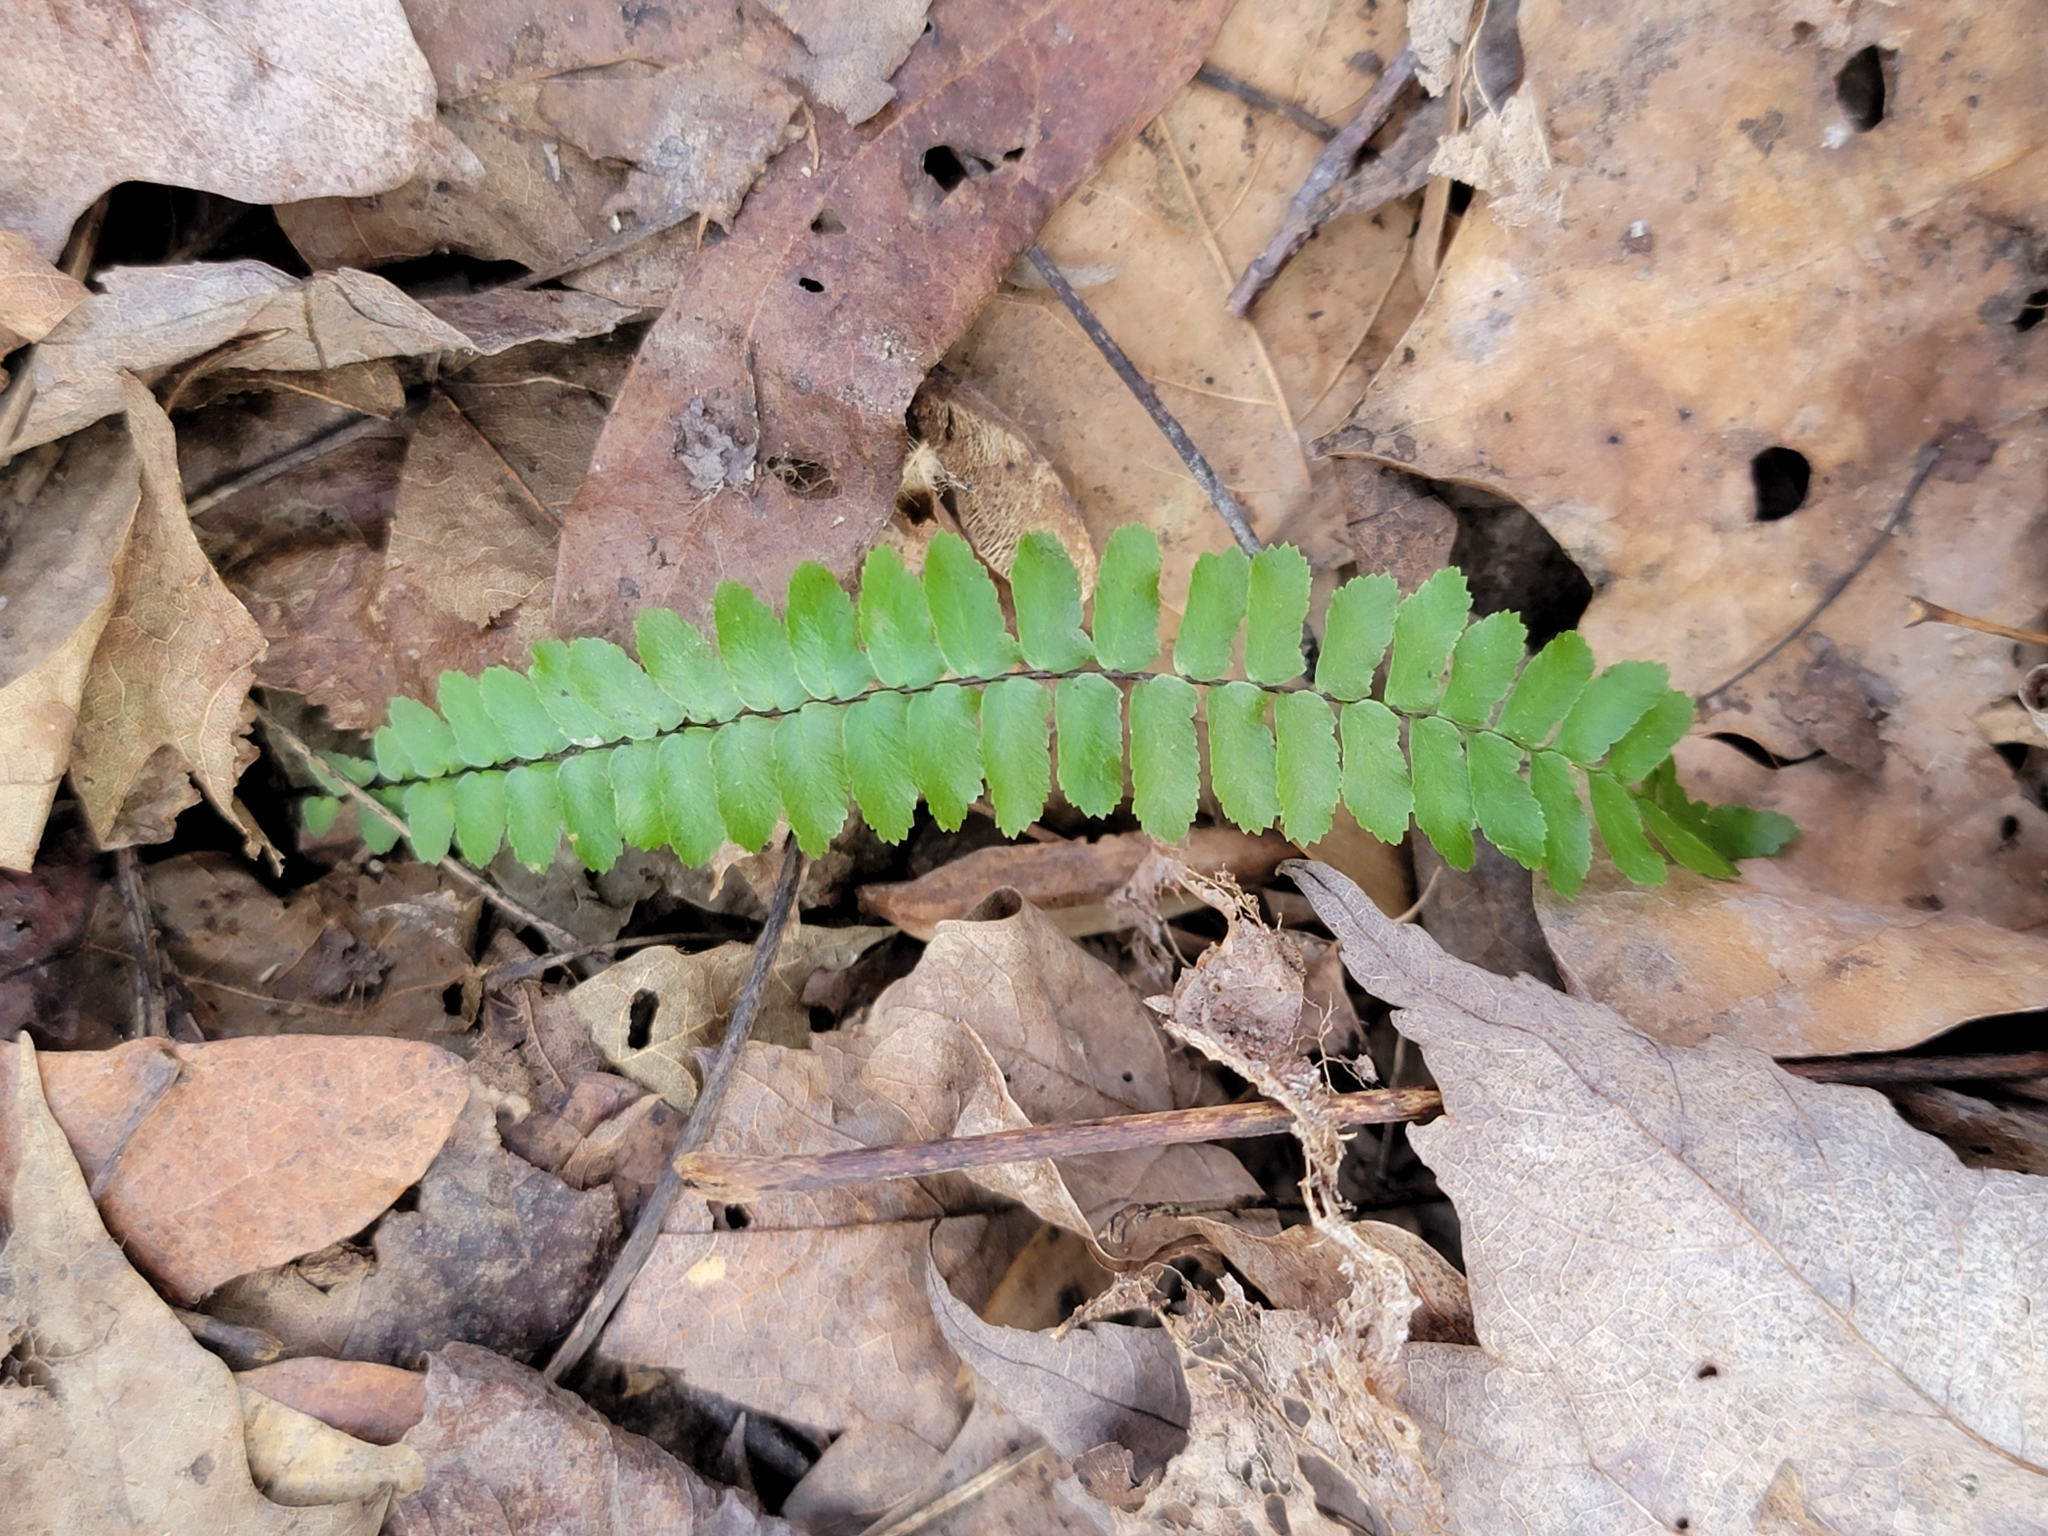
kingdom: Plantae
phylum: Tracheophyta
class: Polypodiopsida
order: Polypodiales
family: Aspleniaceae
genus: Asplenium
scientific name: Asplenium platyneuron
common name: Ebony spleenwort
